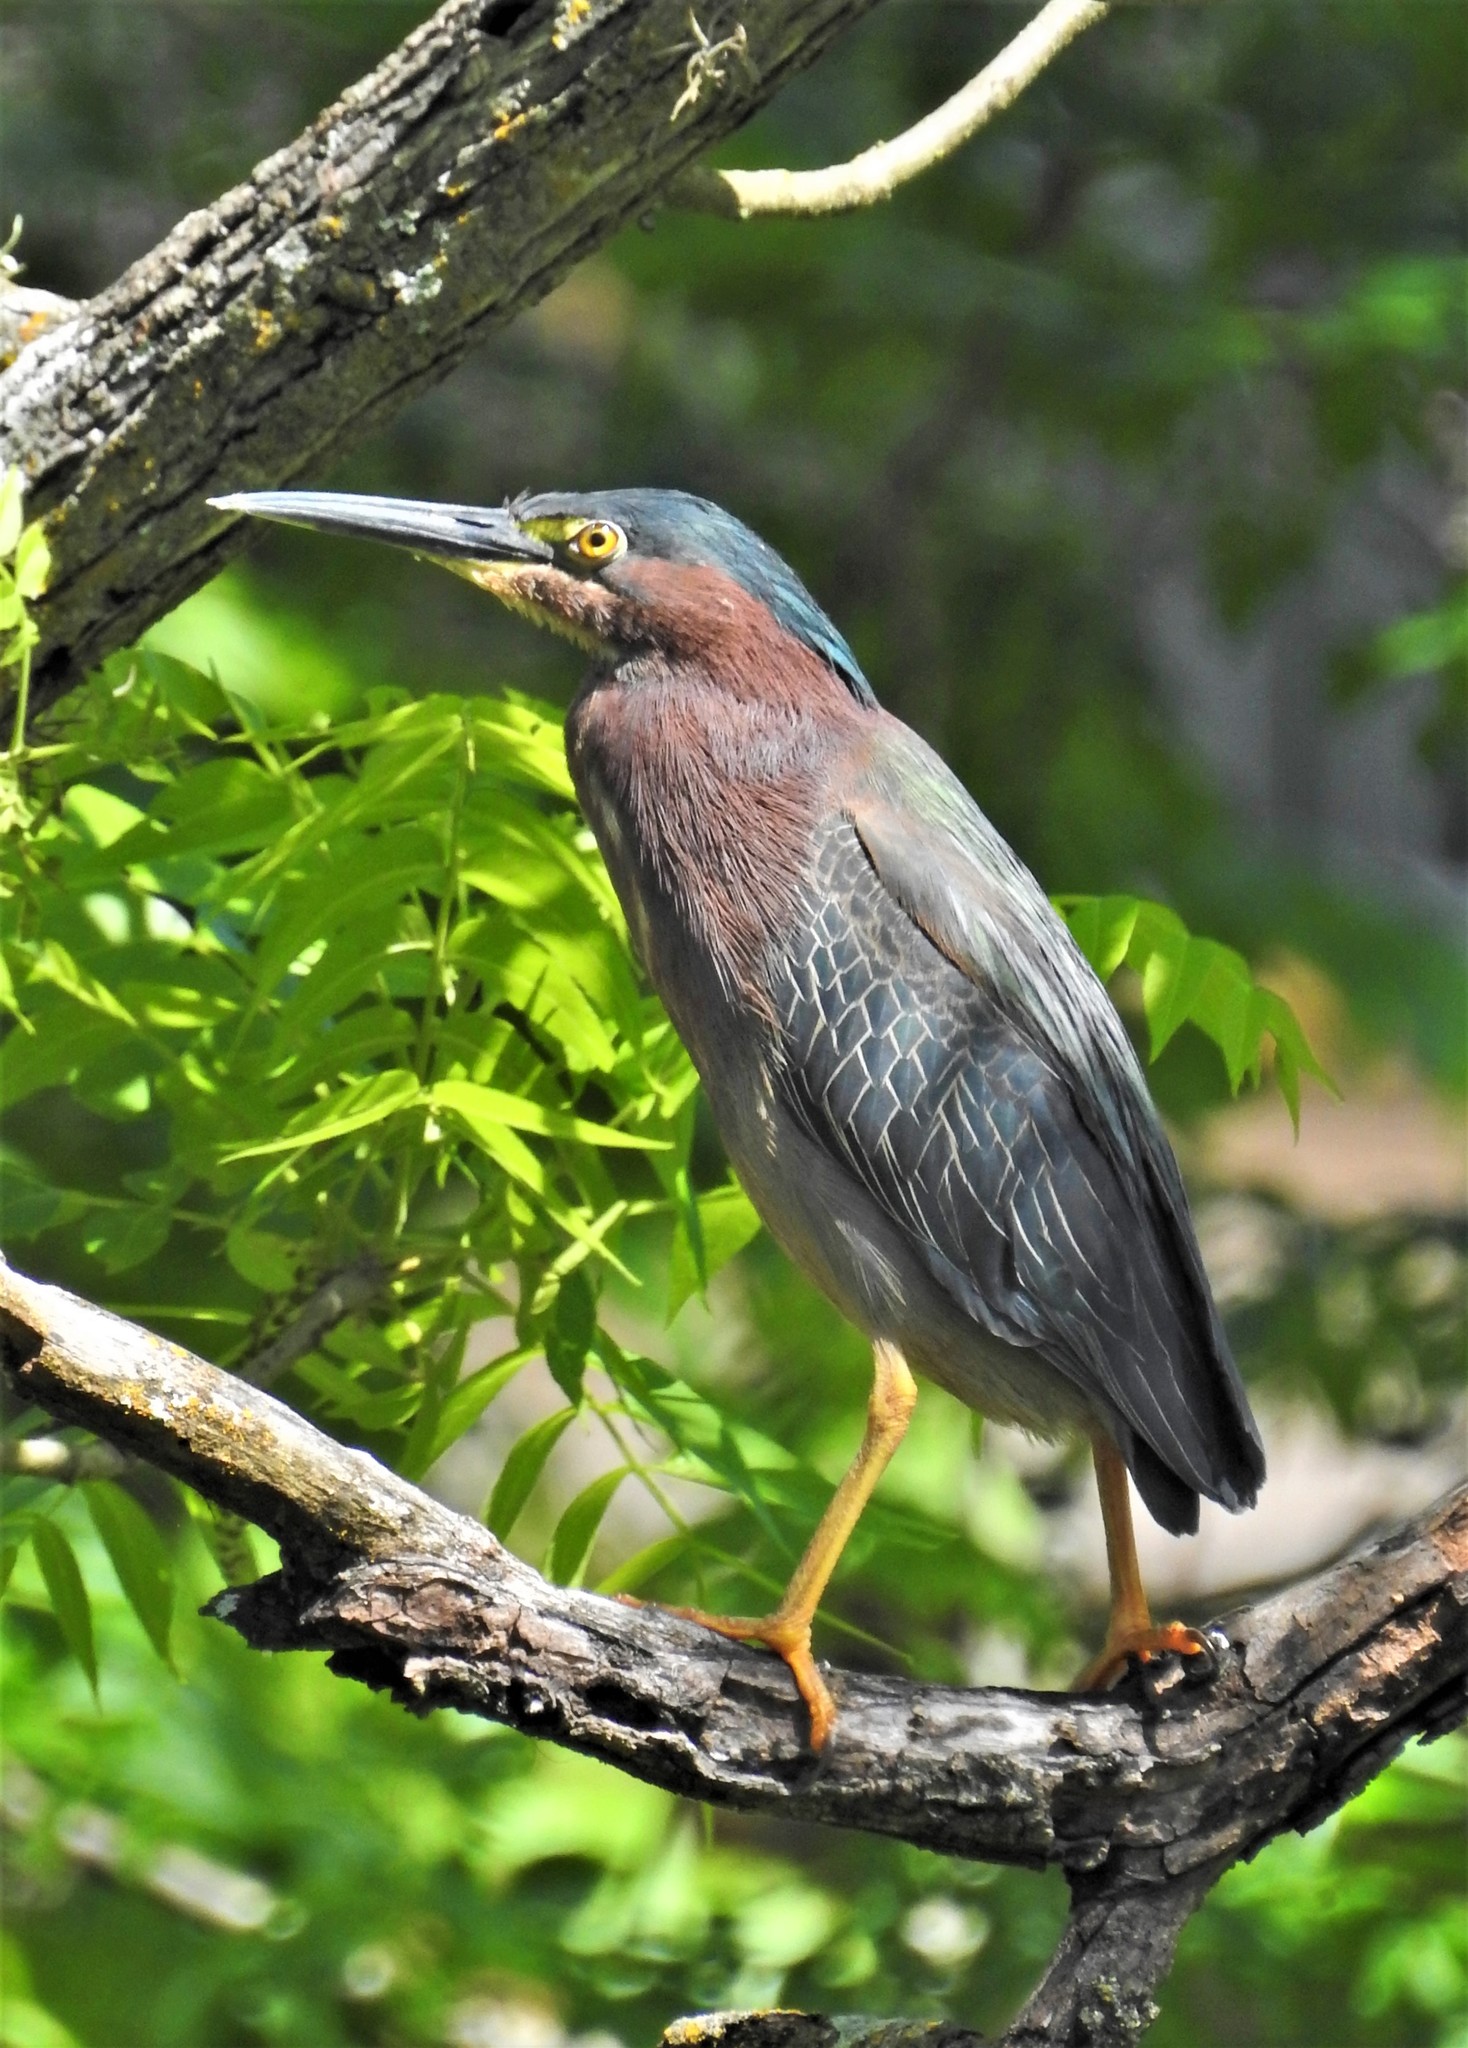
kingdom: Animalia
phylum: Chordata
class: Aves
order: Pelecaniformes
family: Ardeidae
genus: Butorides
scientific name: Butorides virescens
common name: Green heron
